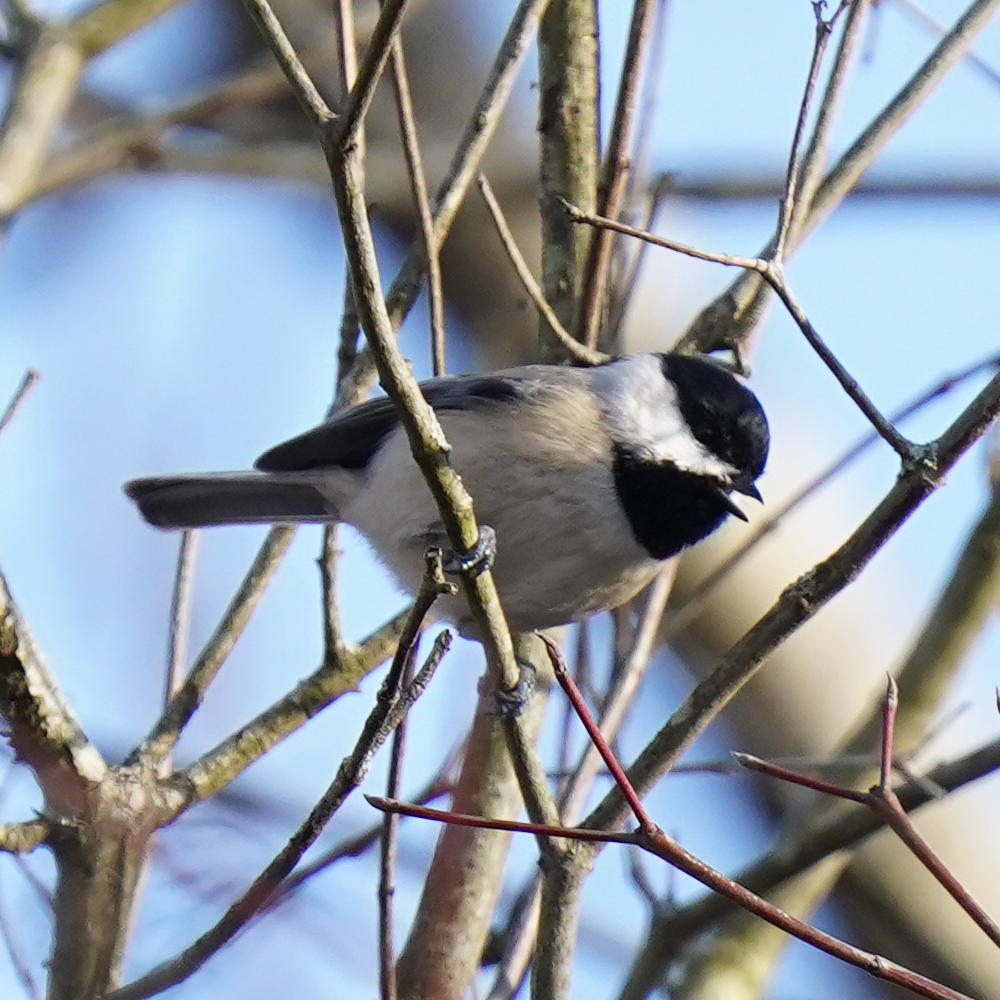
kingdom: Animalia
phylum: Chordata
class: Aves
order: Passeriformes
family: Paridae
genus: Poecile
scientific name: Poecile carolinensis
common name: Carolina chickadee
